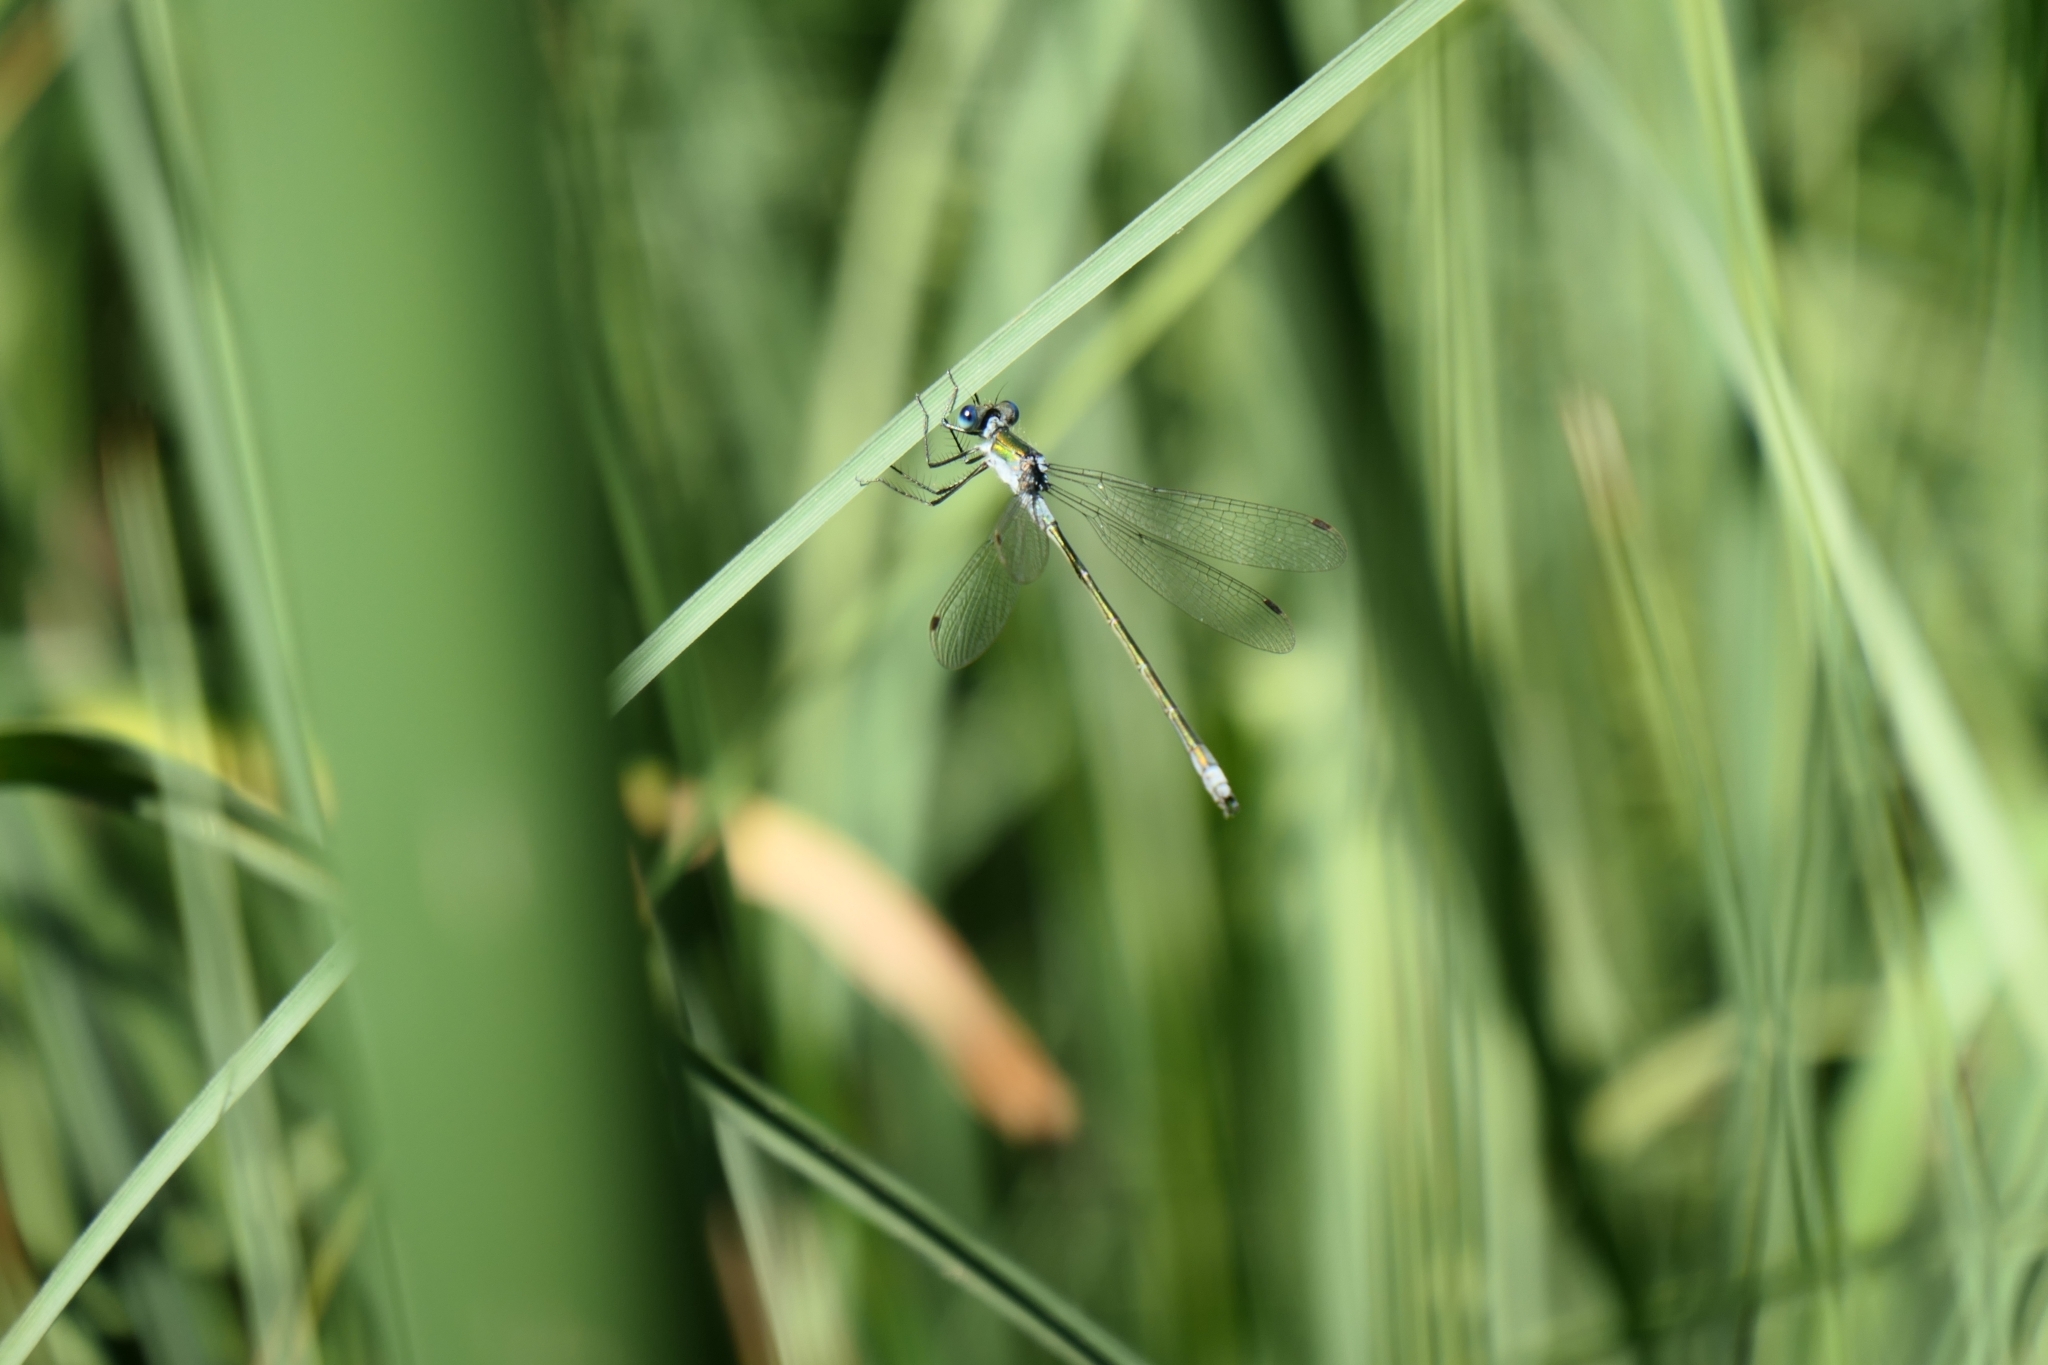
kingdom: Animalia
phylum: Arthropoda
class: Insecta
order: Odonata
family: Lestidae
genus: Lestes
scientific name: Lestes sponsa
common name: Common spreadwing
